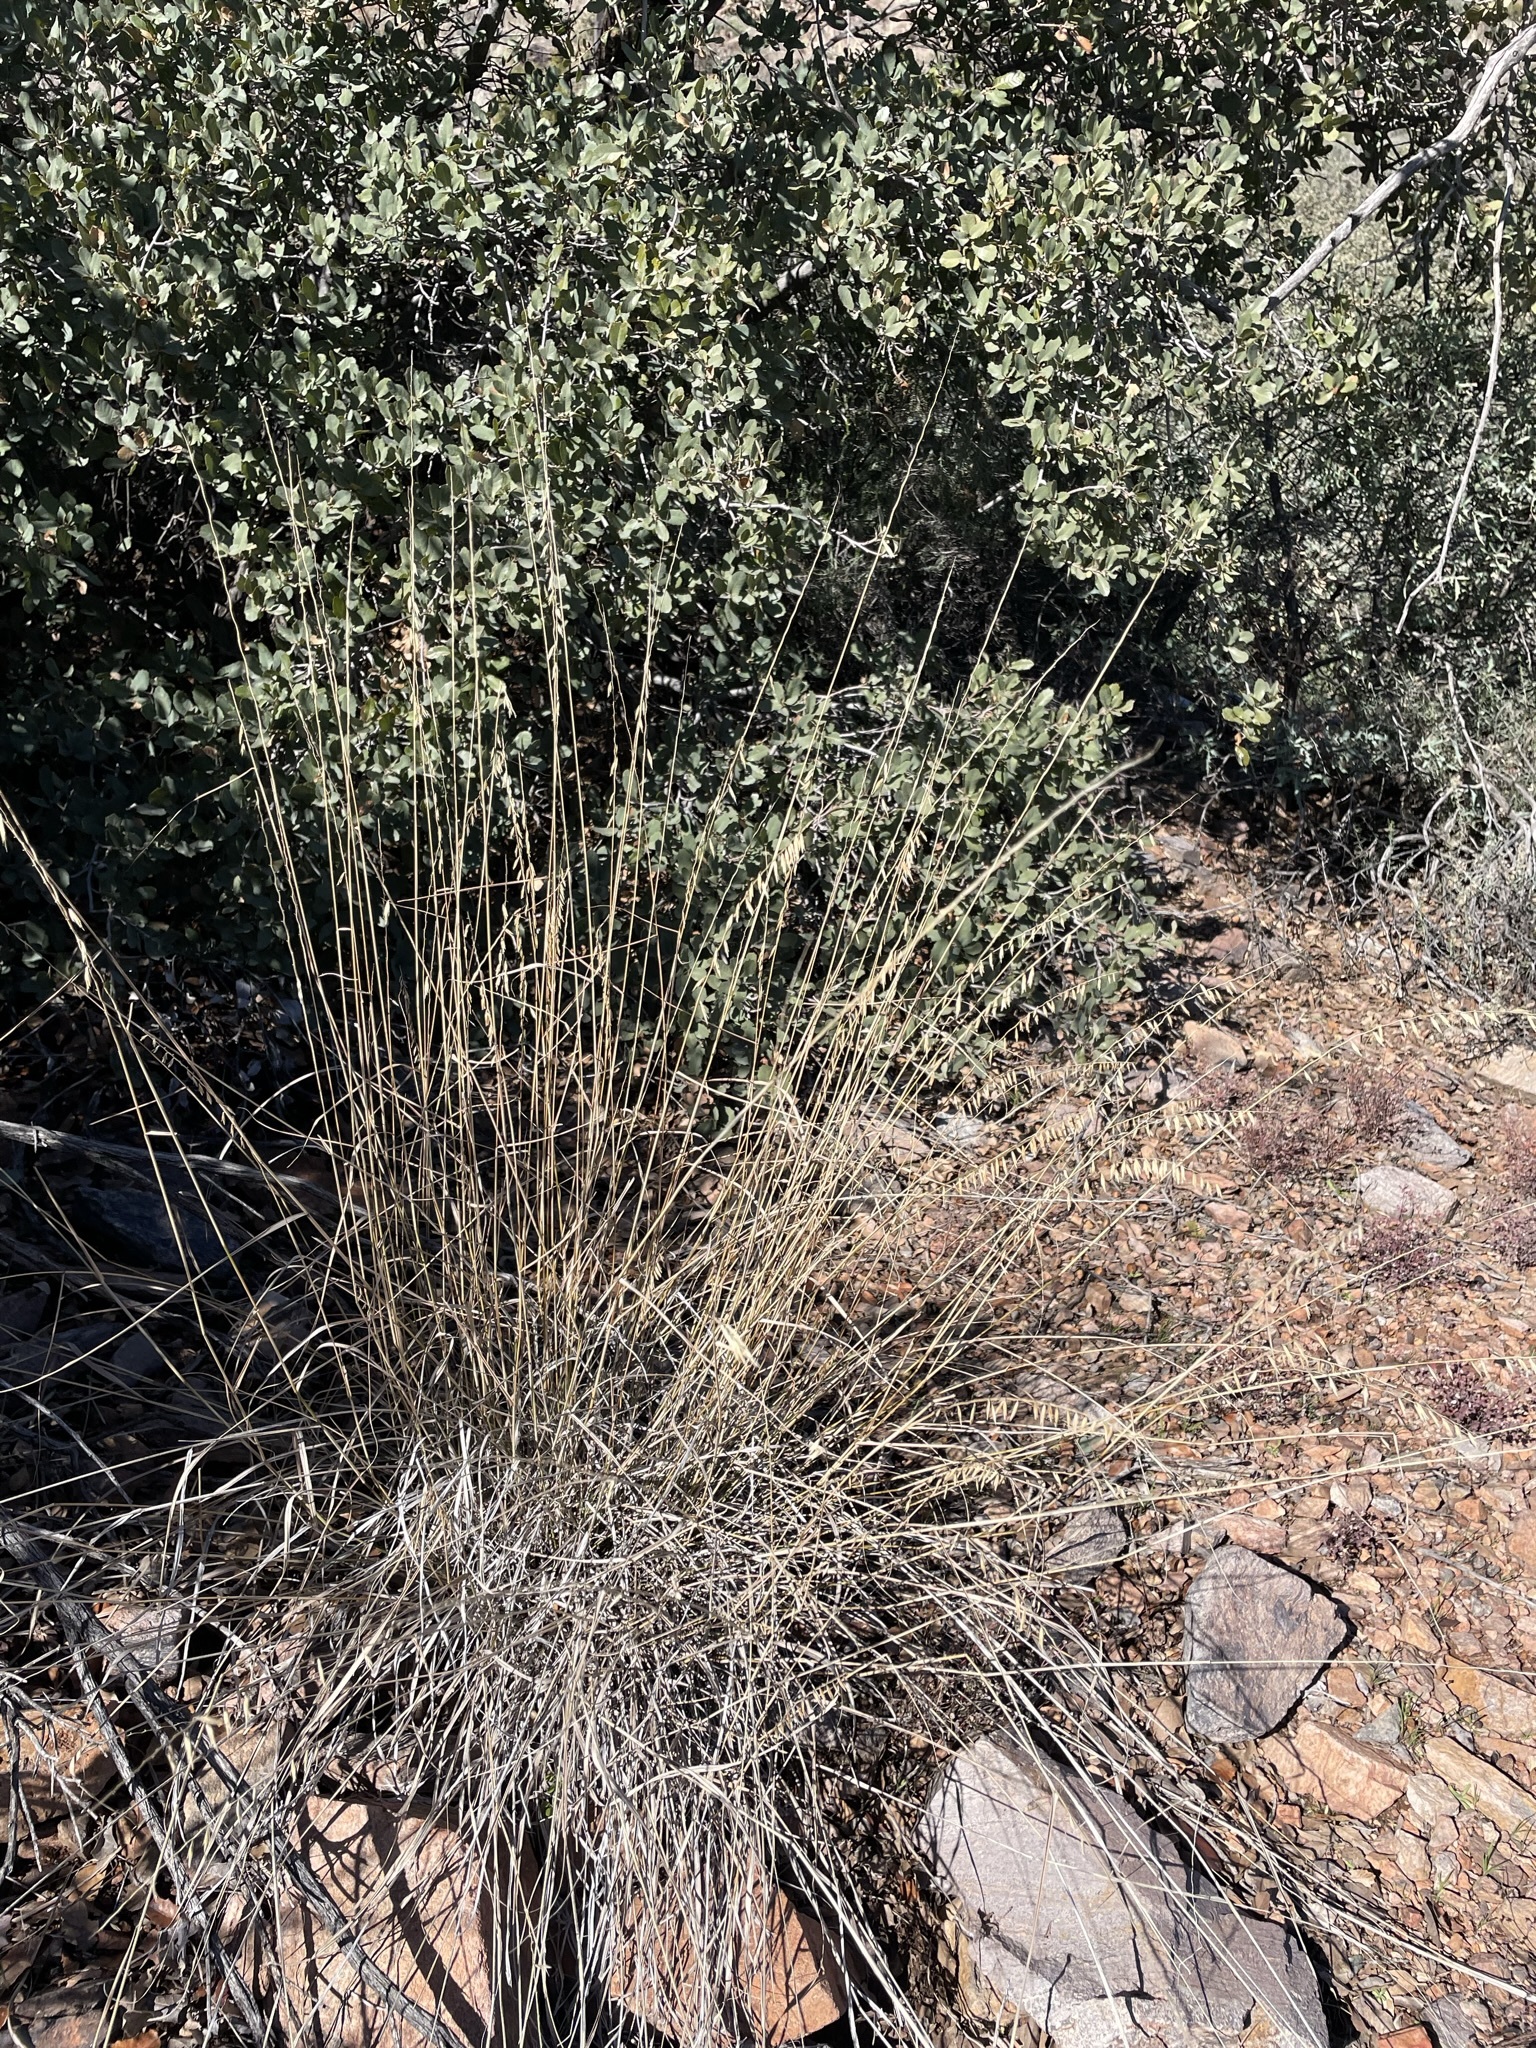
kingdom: Plantae
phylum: Tracheophyta
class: Liliopsida
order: Poales
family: Poaceae
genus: Bouteloua
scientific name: Bouteloua curtipendula
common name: Side-oats grama
